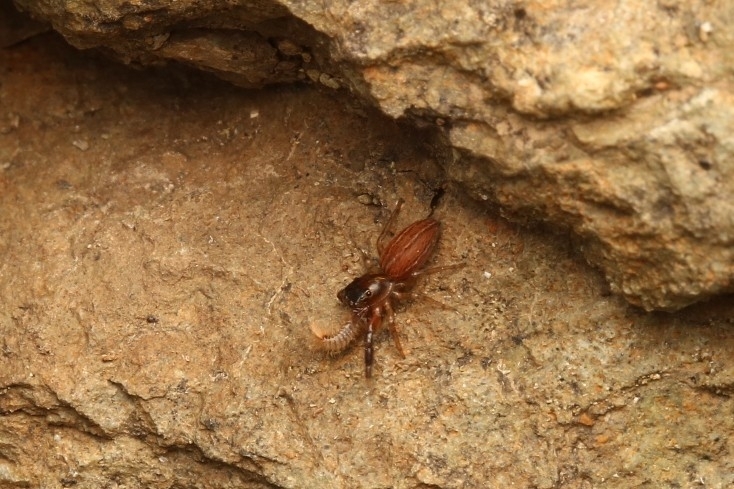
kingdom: Animalia
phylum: Arthropoda
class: Arachnida
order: Araneae
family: Salticidae
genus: Marpissa
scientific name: Marpissa lineata
